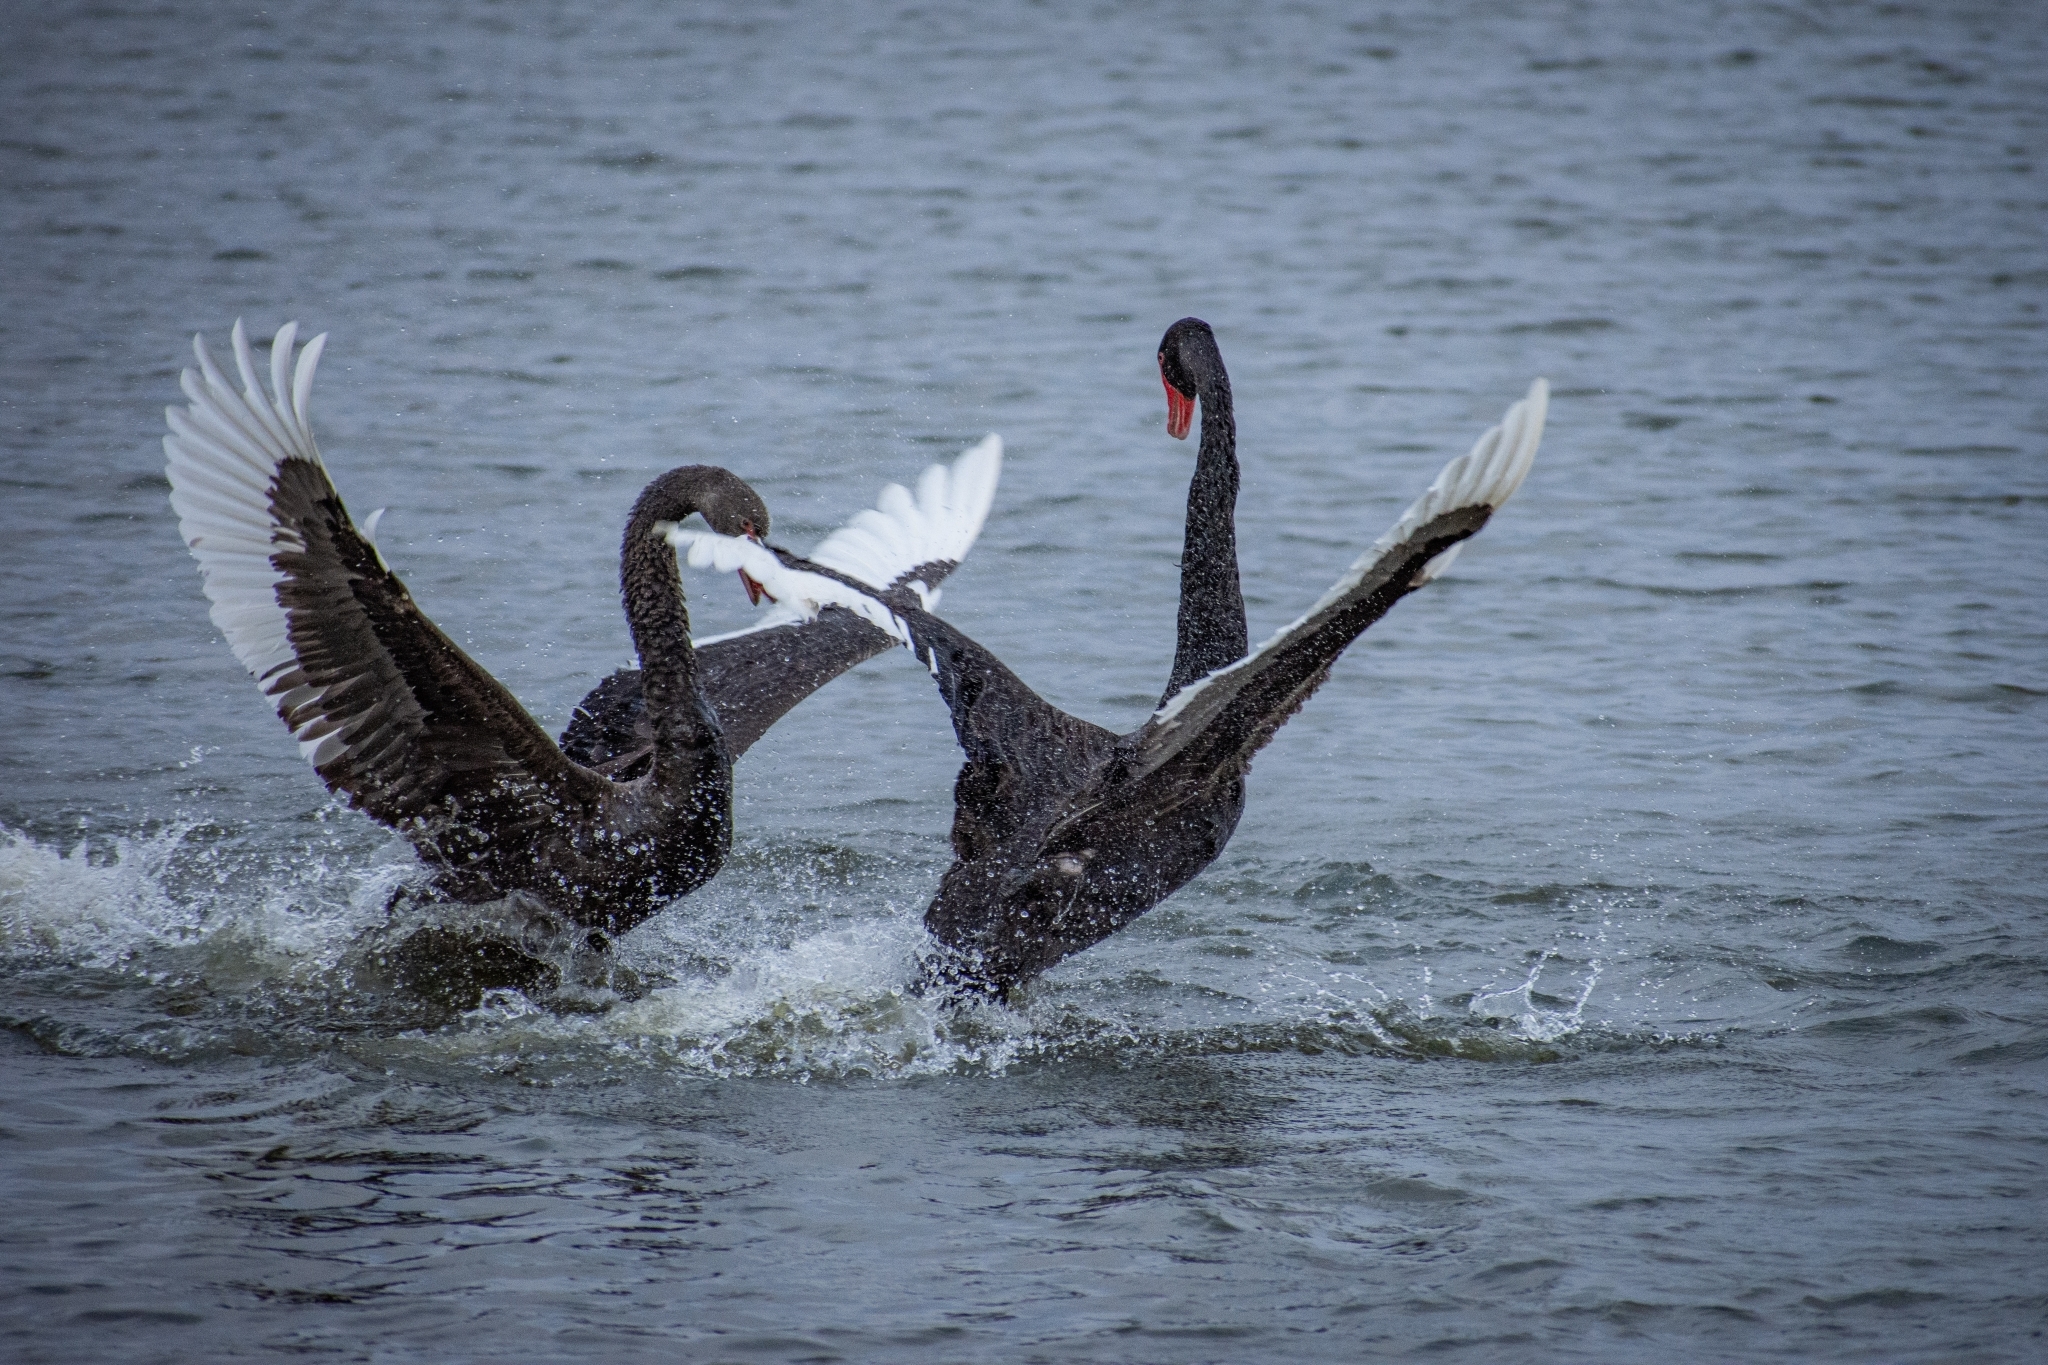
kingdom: Animalia
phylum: Chordata
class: Aves
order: Anseriformes
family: Anatidae
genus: Cygnus
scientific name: Cygnus atratus
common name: Black swan
